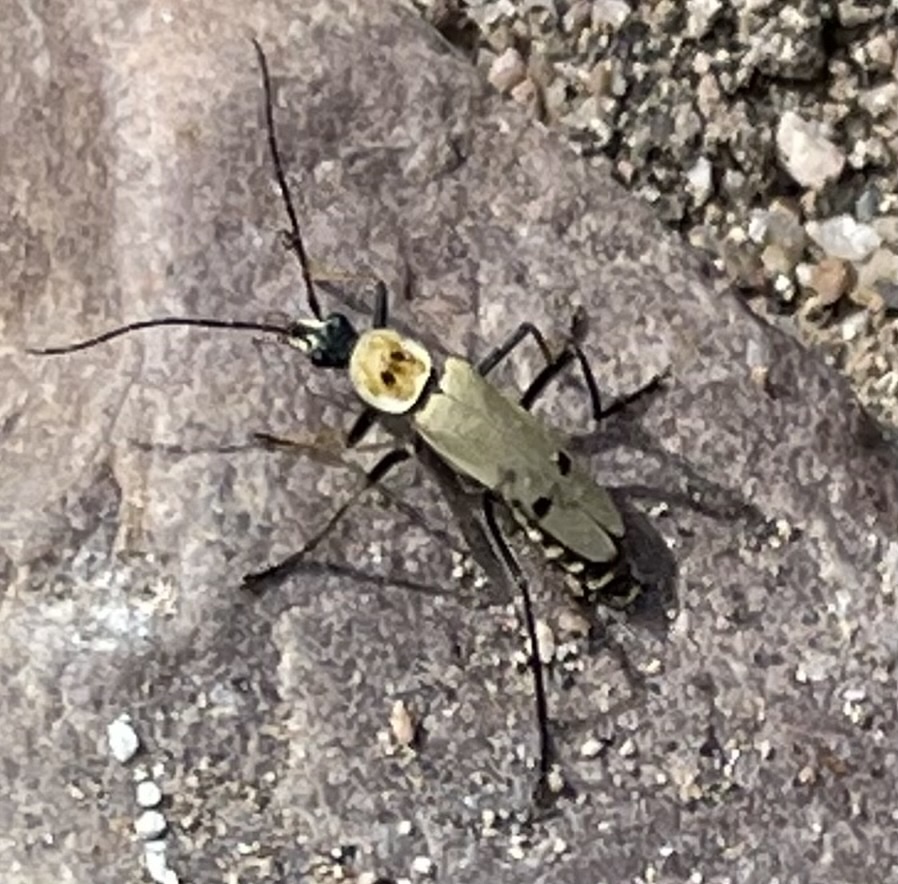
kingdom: Animalia
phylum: Arthropoda
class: Insecta
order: Coleoptera
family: Cantharidae
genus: Chauliognathus
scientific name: Chauliognathus misellus
